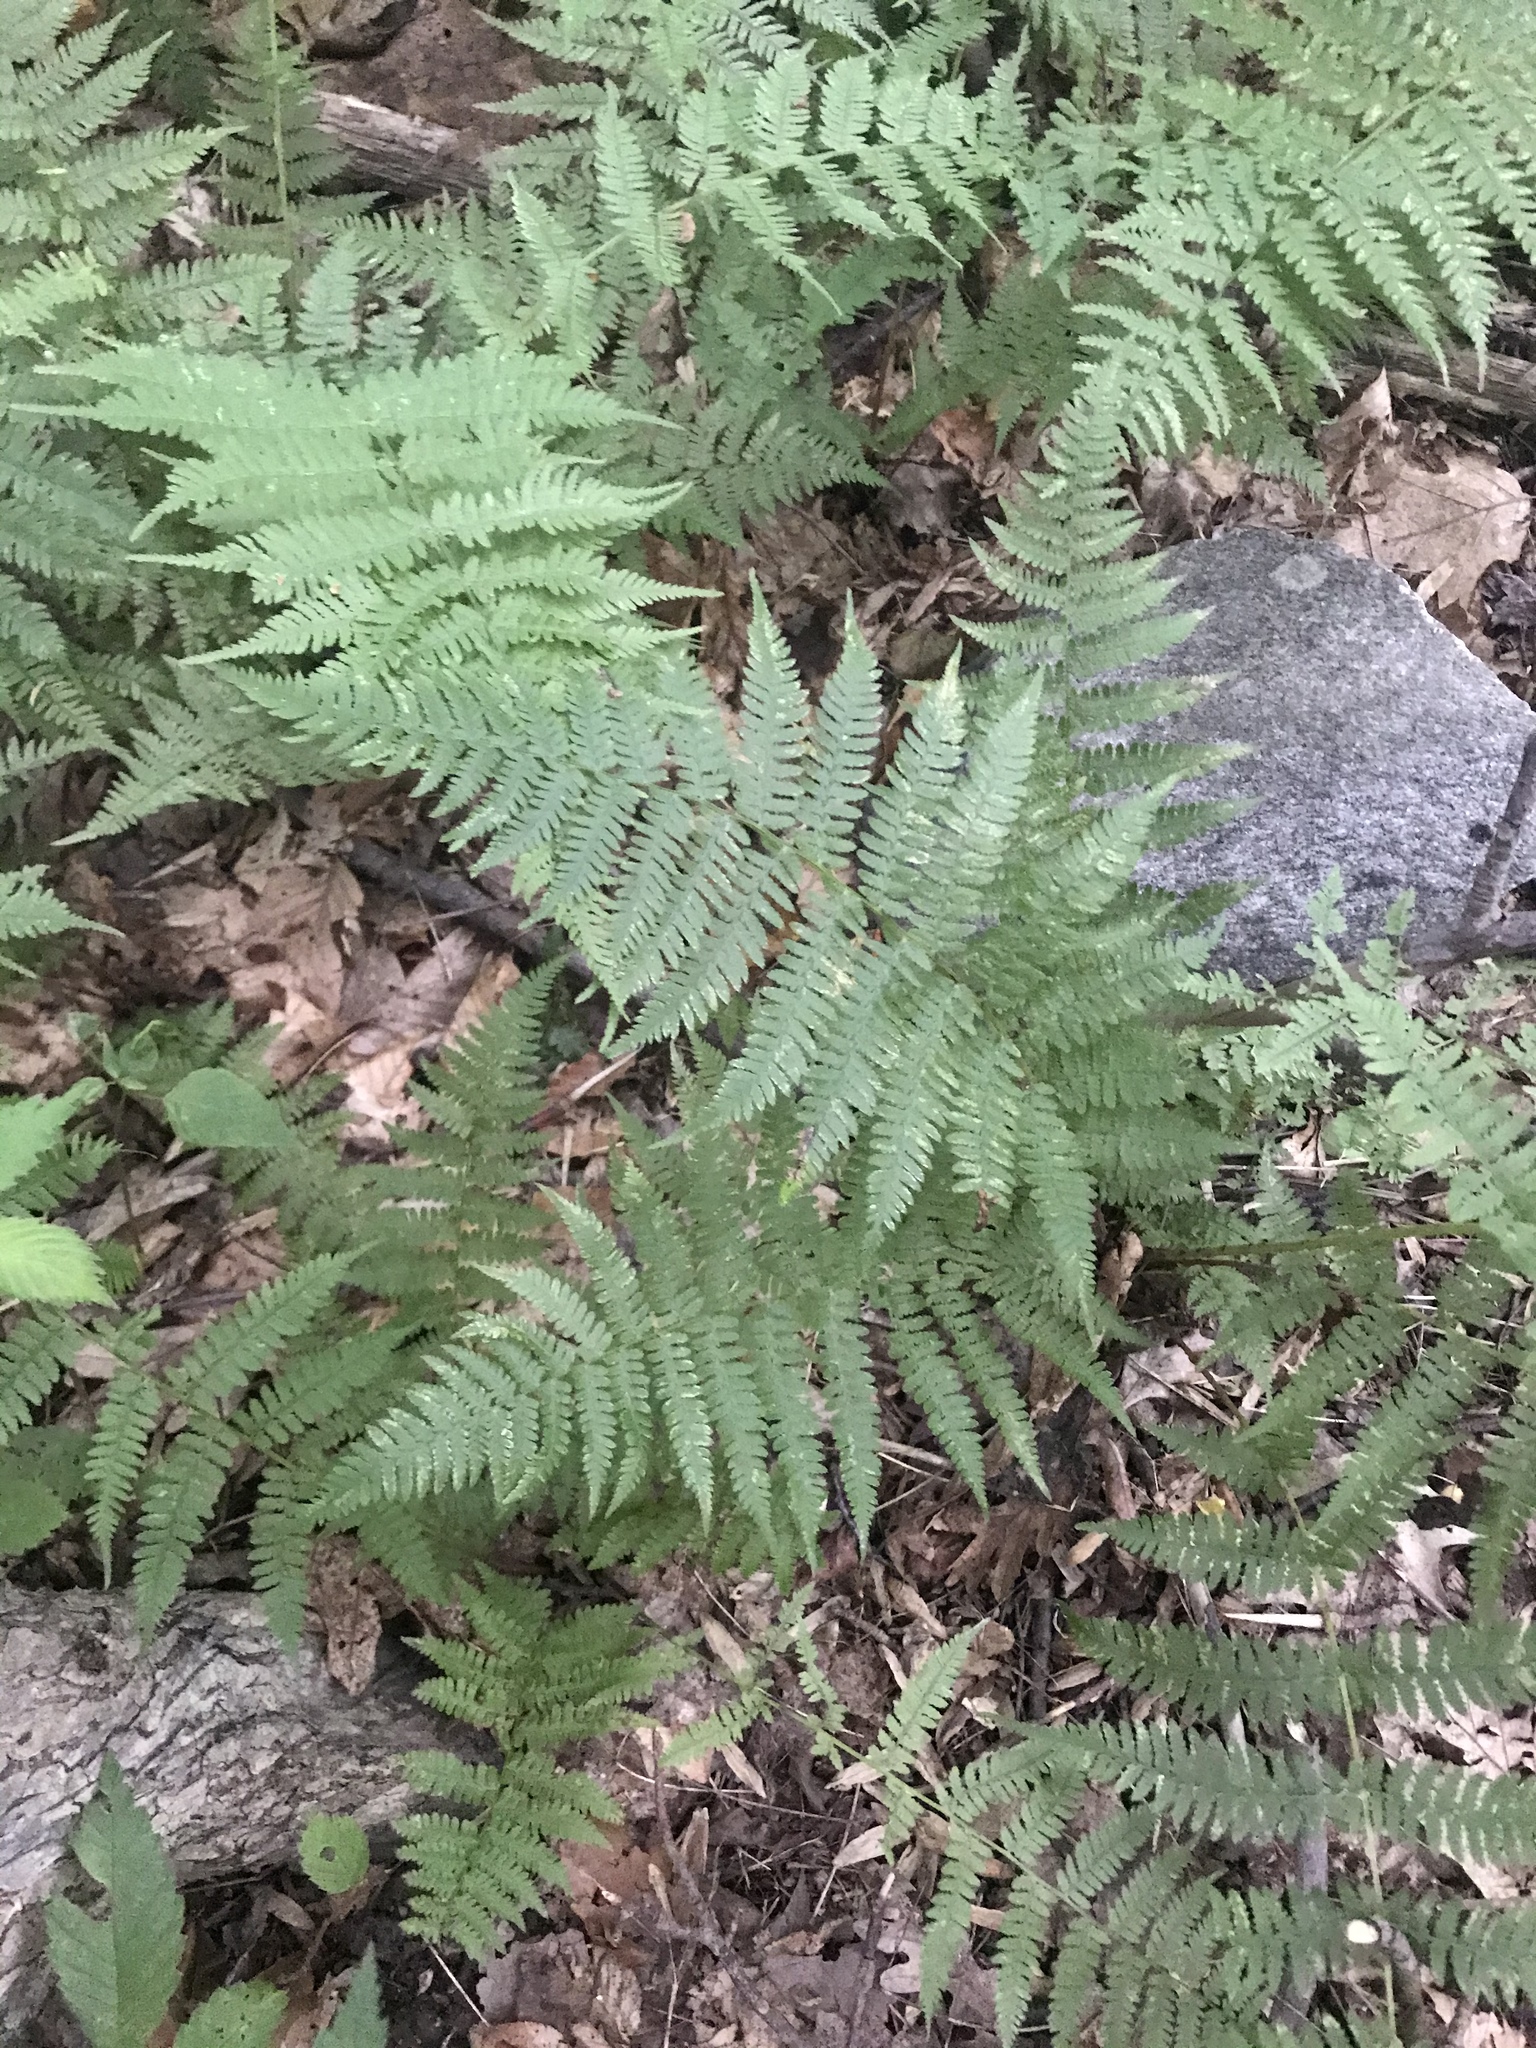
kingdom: Plantae
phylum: Tracheophyta
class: Polypodiopsida
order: Polypodiales
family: Athyriaceae
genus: Athyrium
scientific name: Athyrium angustum
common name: Northern lady fern
